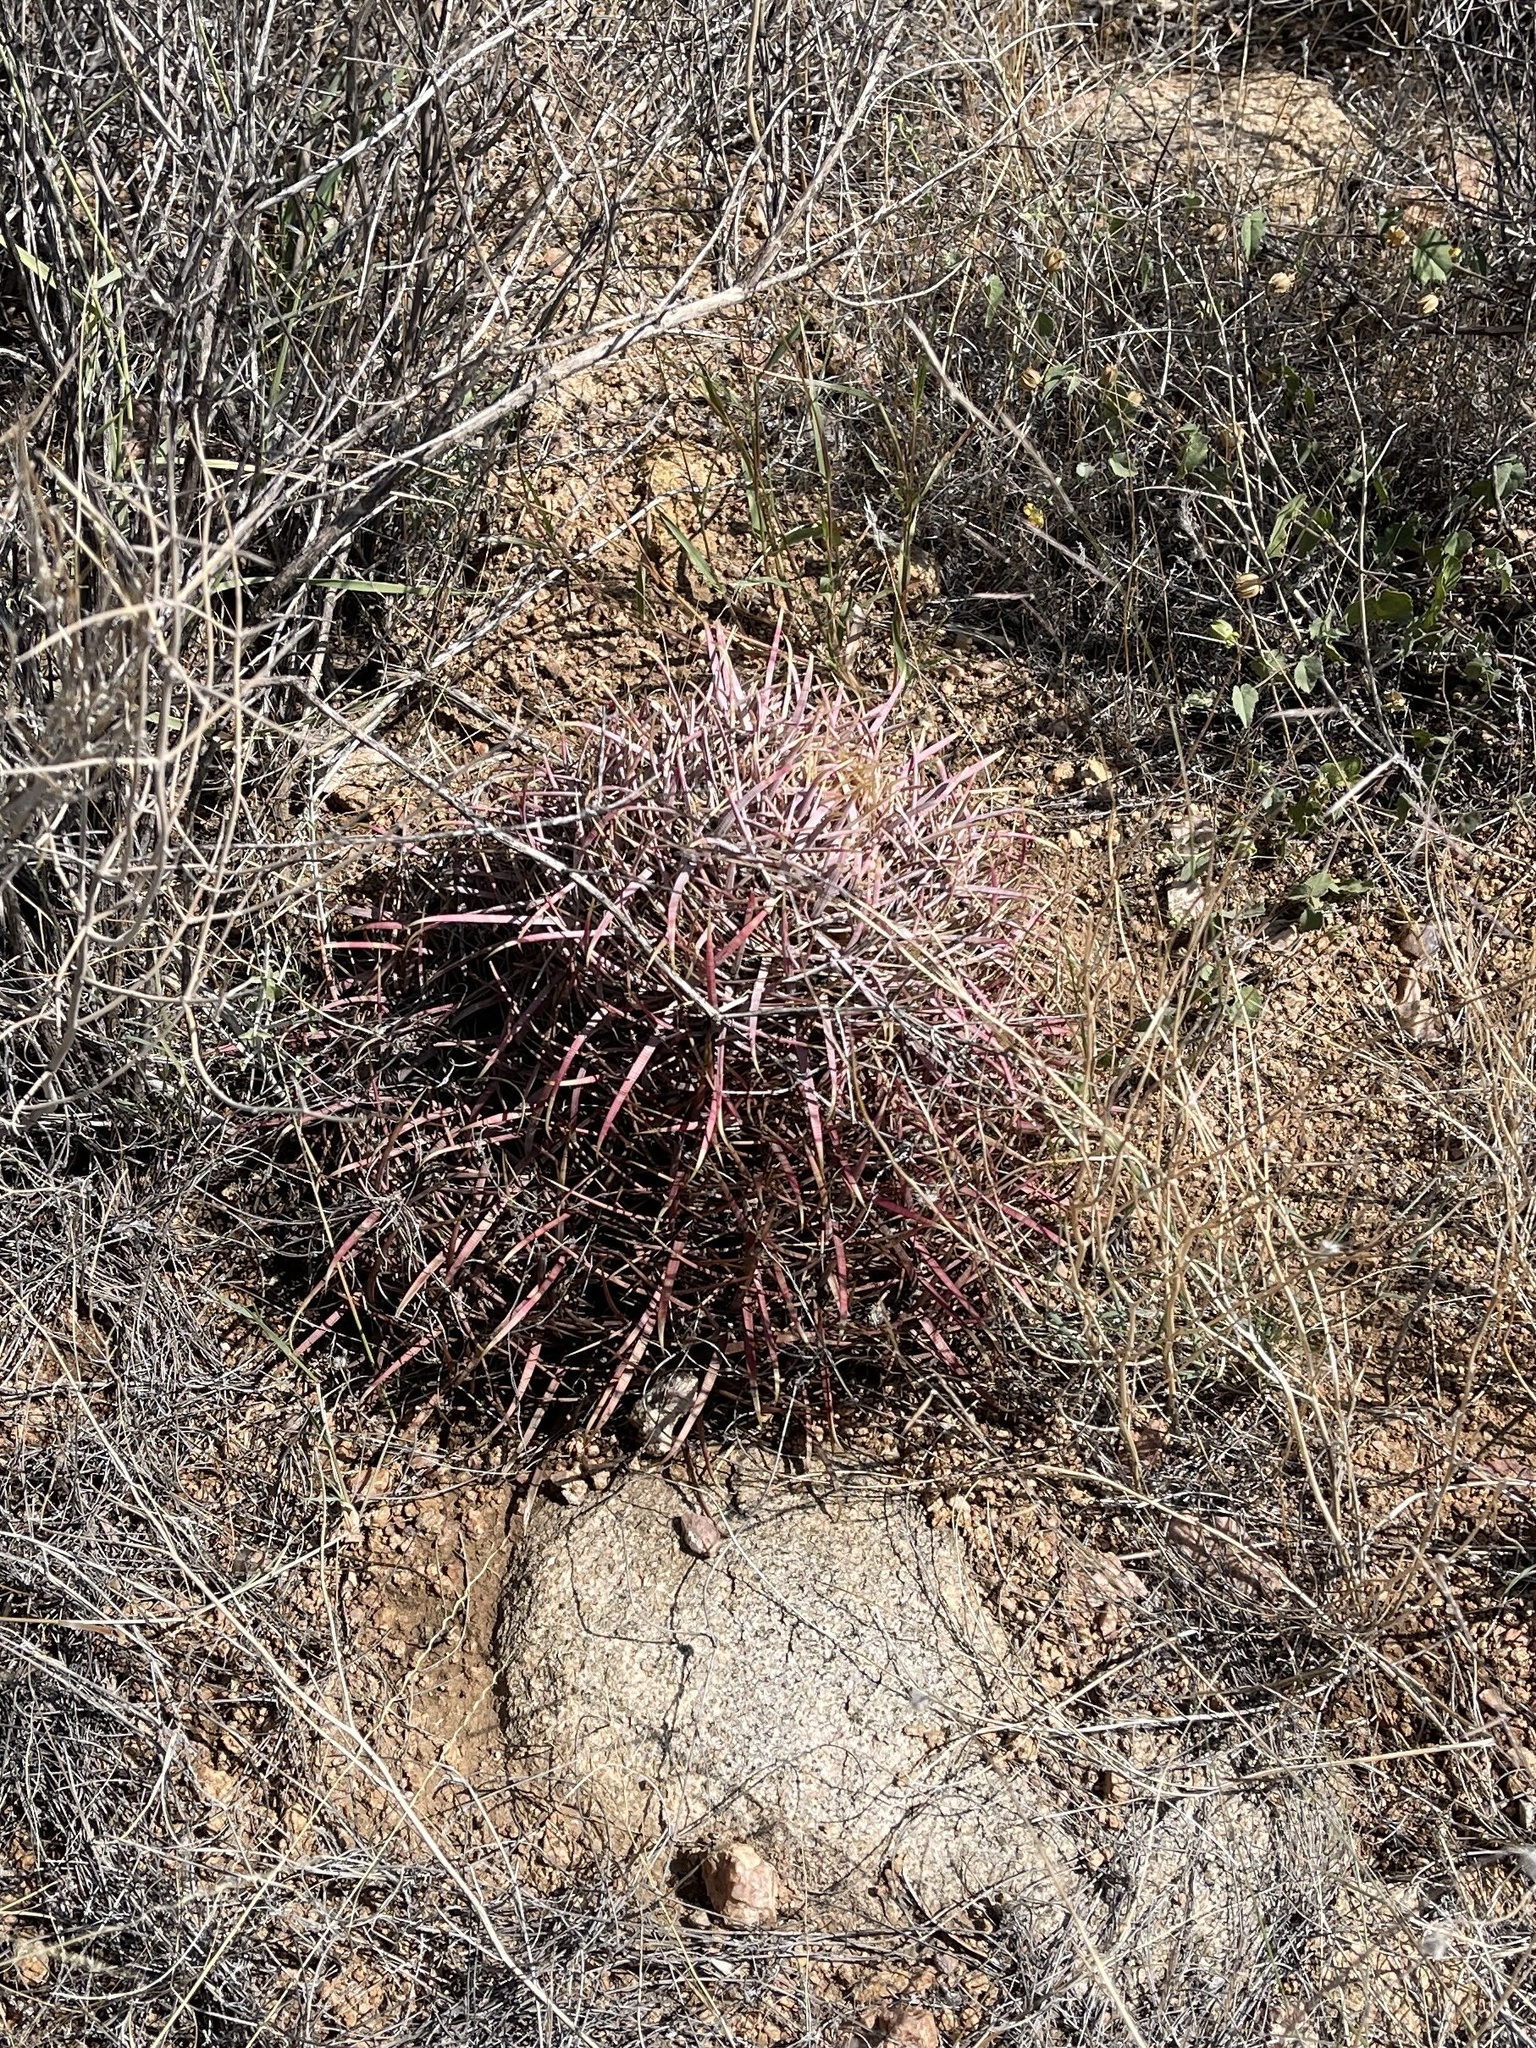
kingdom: Plantae
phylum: Tracheophyta
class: Magnoliopsida
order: Caryophyllales
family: Cactaceae
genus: Ferocactus
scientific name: Ferocactus cylindraceus
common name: California barrel cactus
